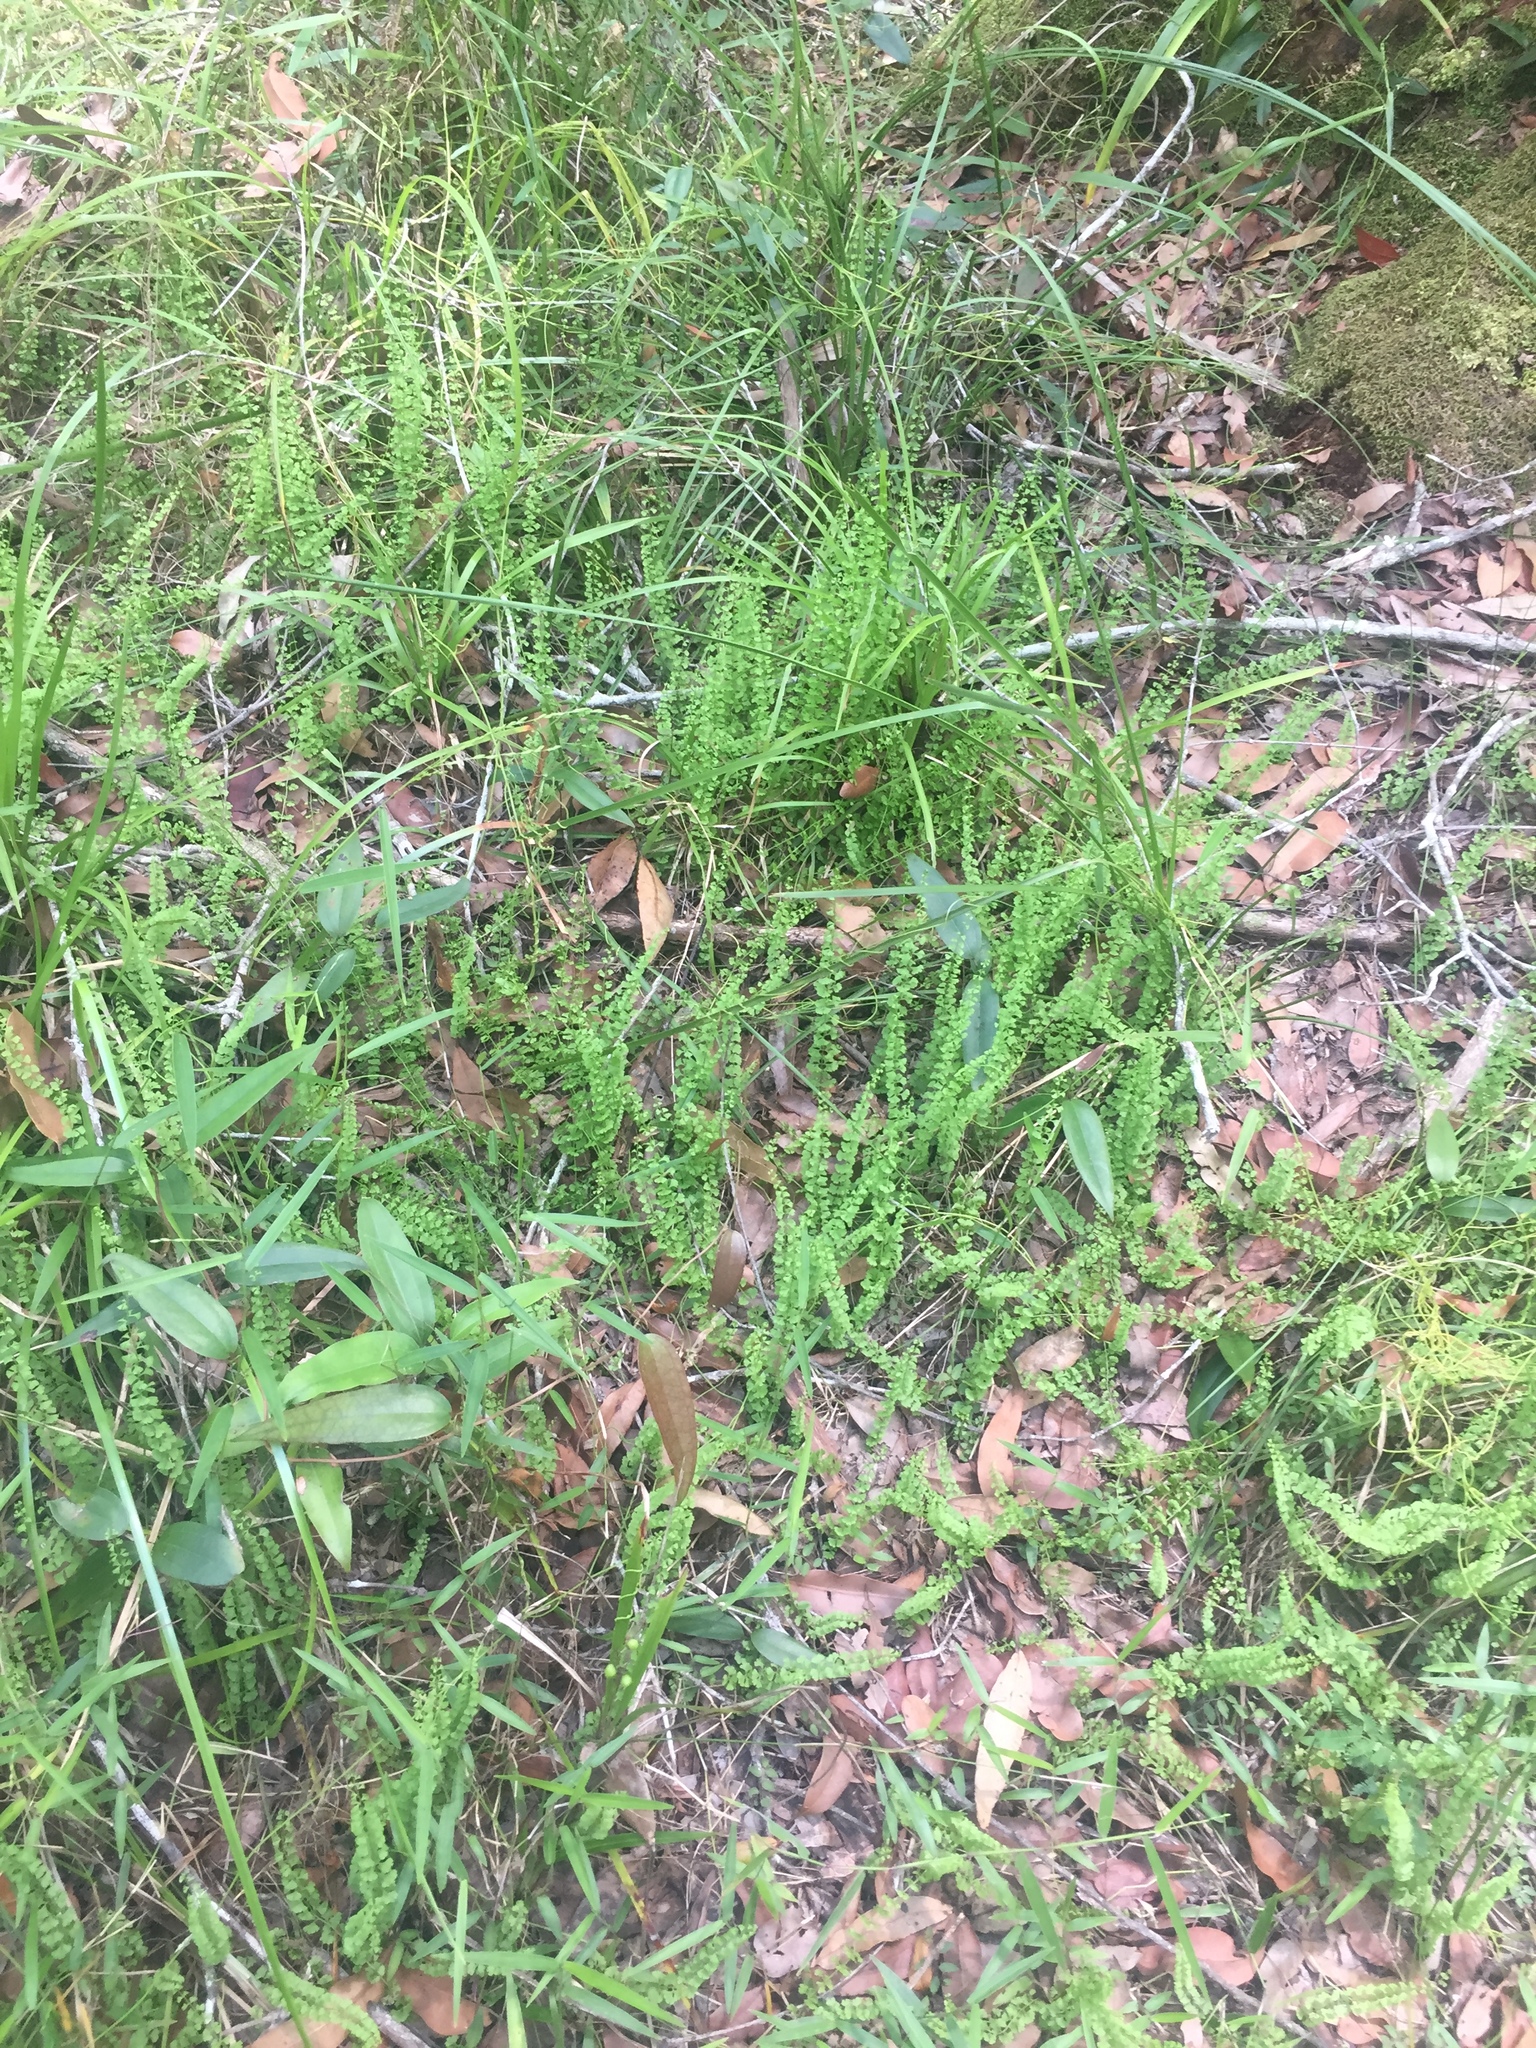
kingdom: Plantae
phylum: Tracheophyta
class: Polypodiopsida
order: Polypodiales
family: Lindsaeaceae
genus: Lindsaea
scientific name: Lindsaea incisa
